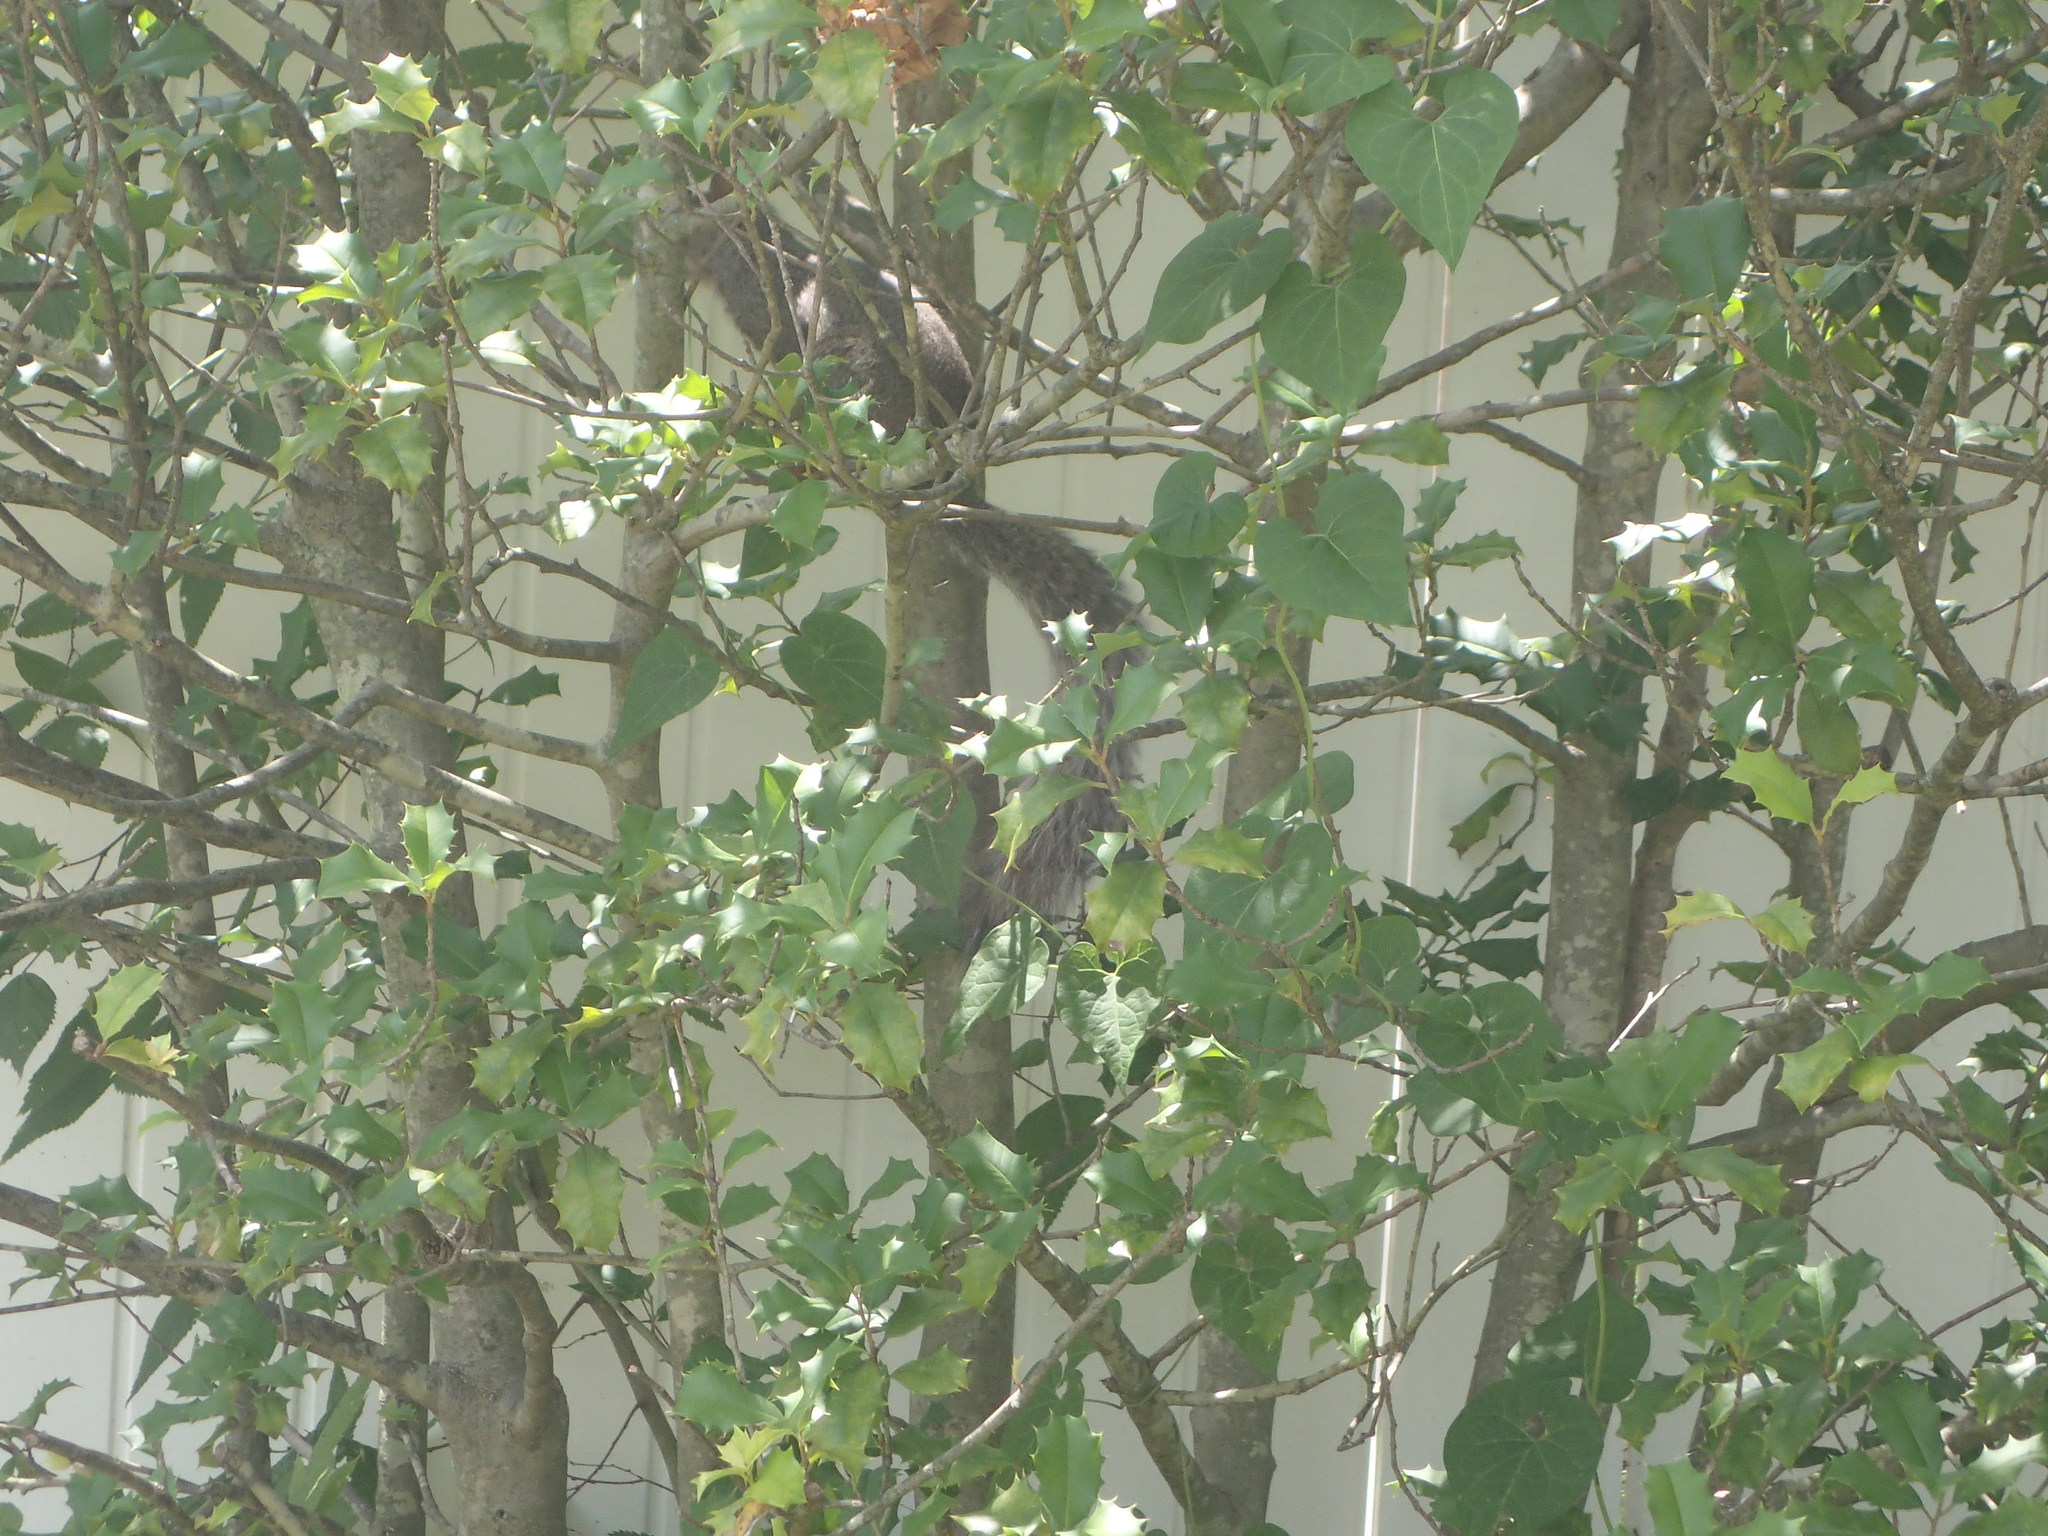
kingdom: Animalia
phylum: Chordata
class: Mammalia
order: Rodentia
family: Sciuridae
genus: Sciurus
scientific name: Sciurus carolinensis
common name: Eastern gray squirrel
